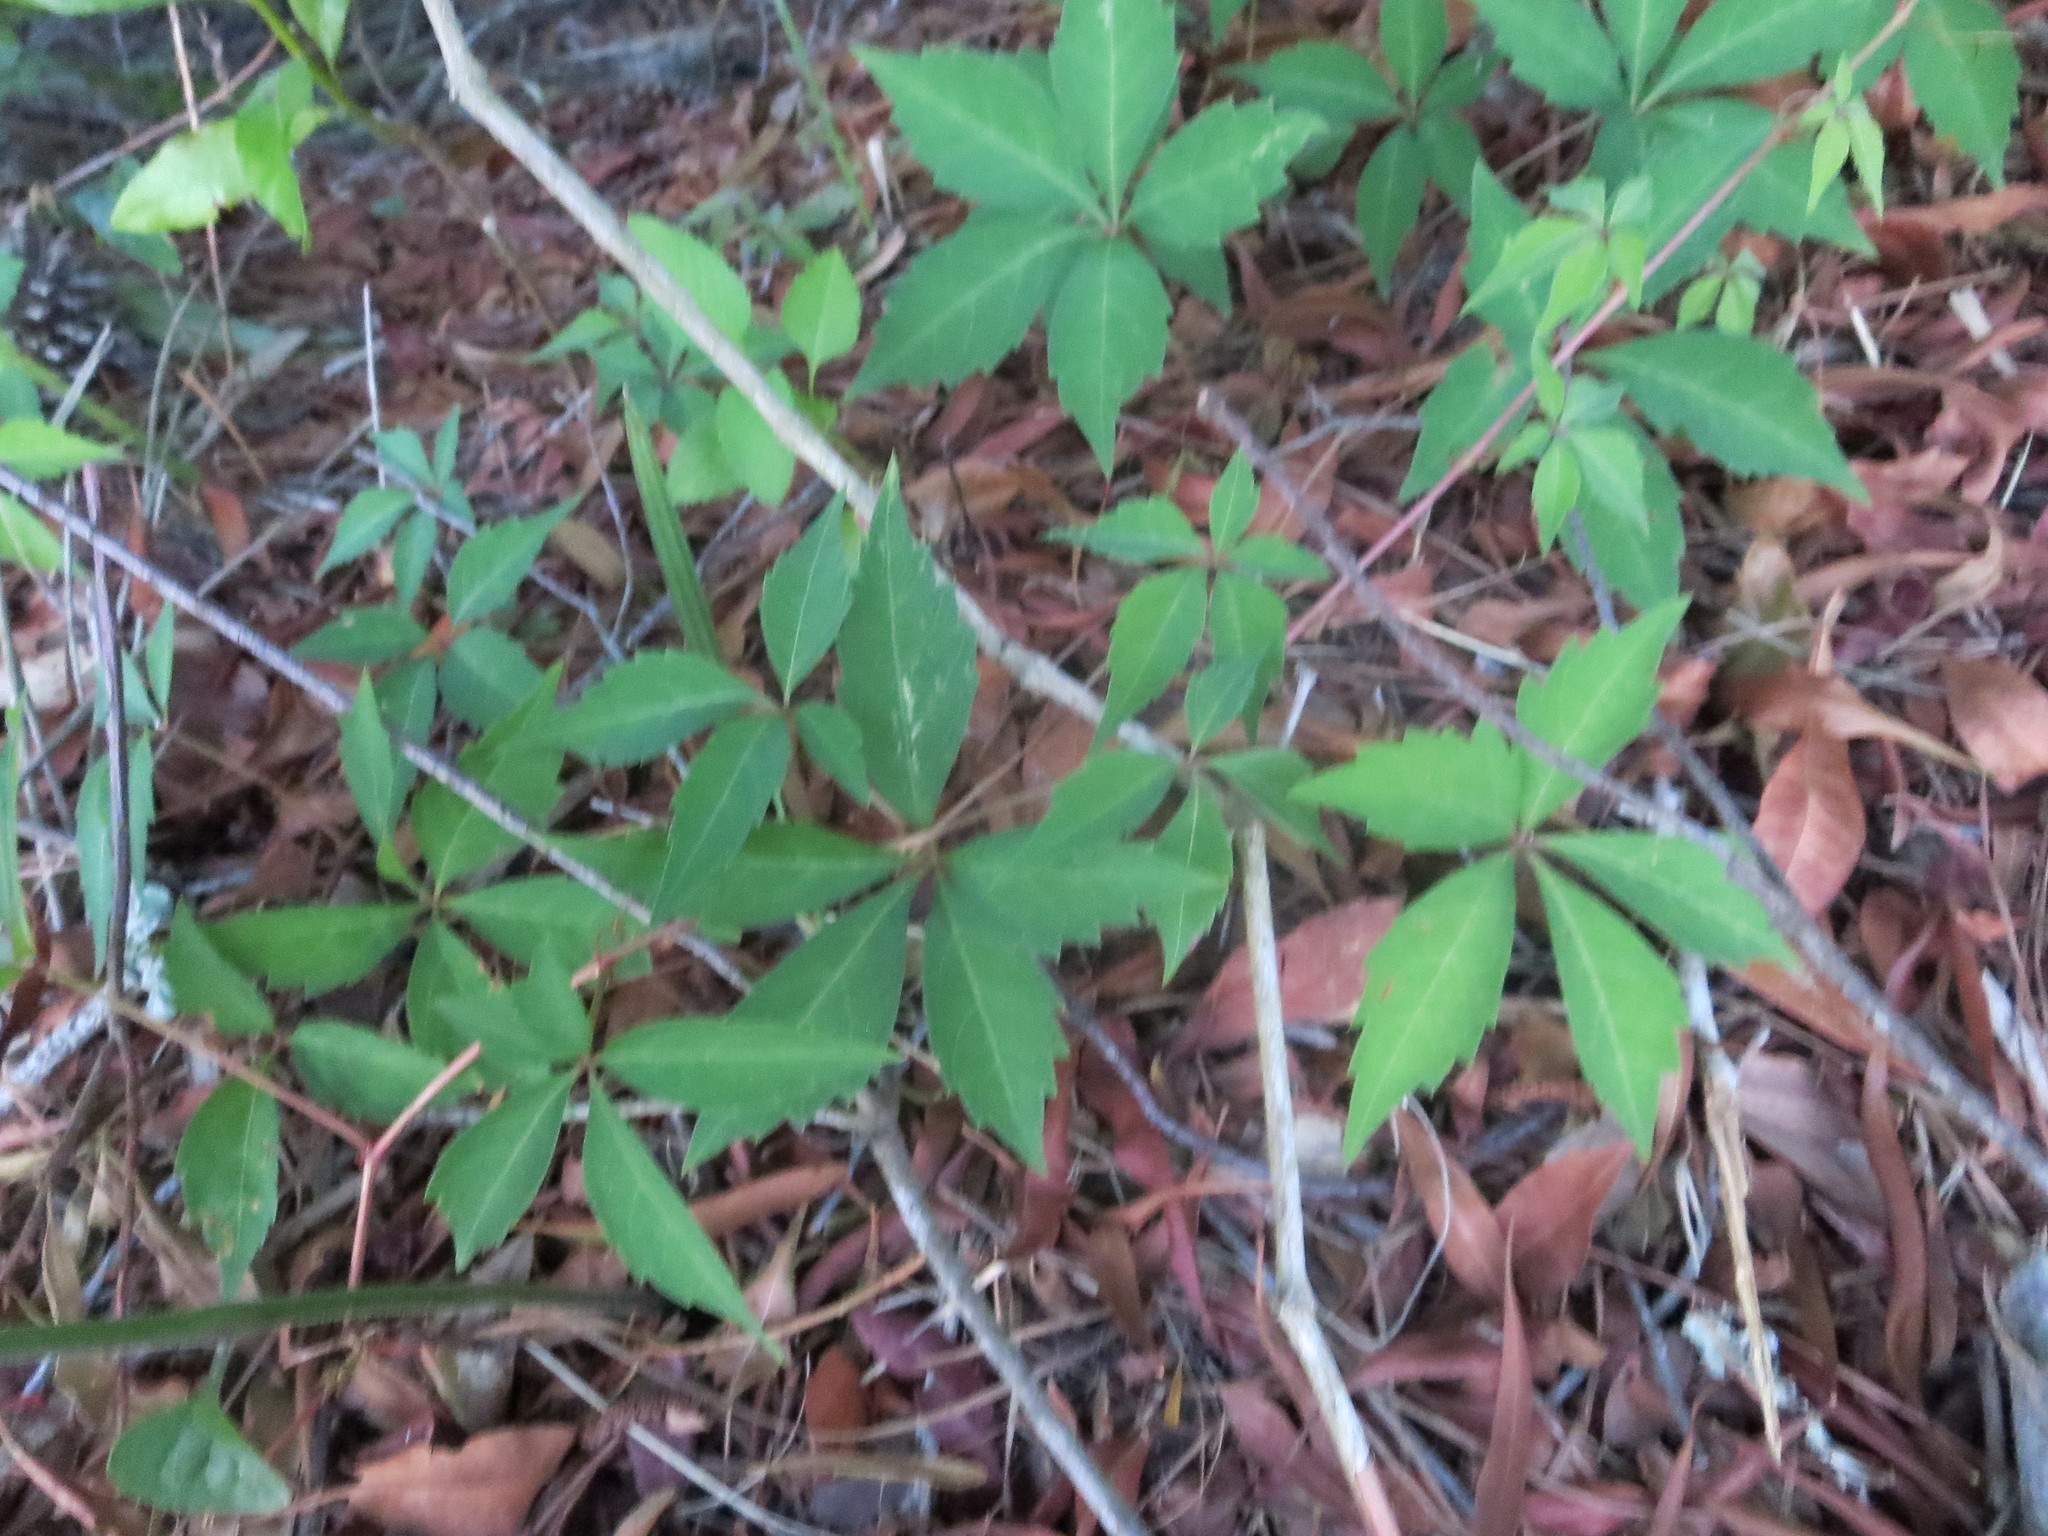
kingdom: Plantae
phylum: Tracheophyta
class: Magnoliopsida
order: Vitales
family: Vitaceae
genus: Parthenocissus
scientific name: Parthenocissus quinquefolia
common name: Virginia-creeper
